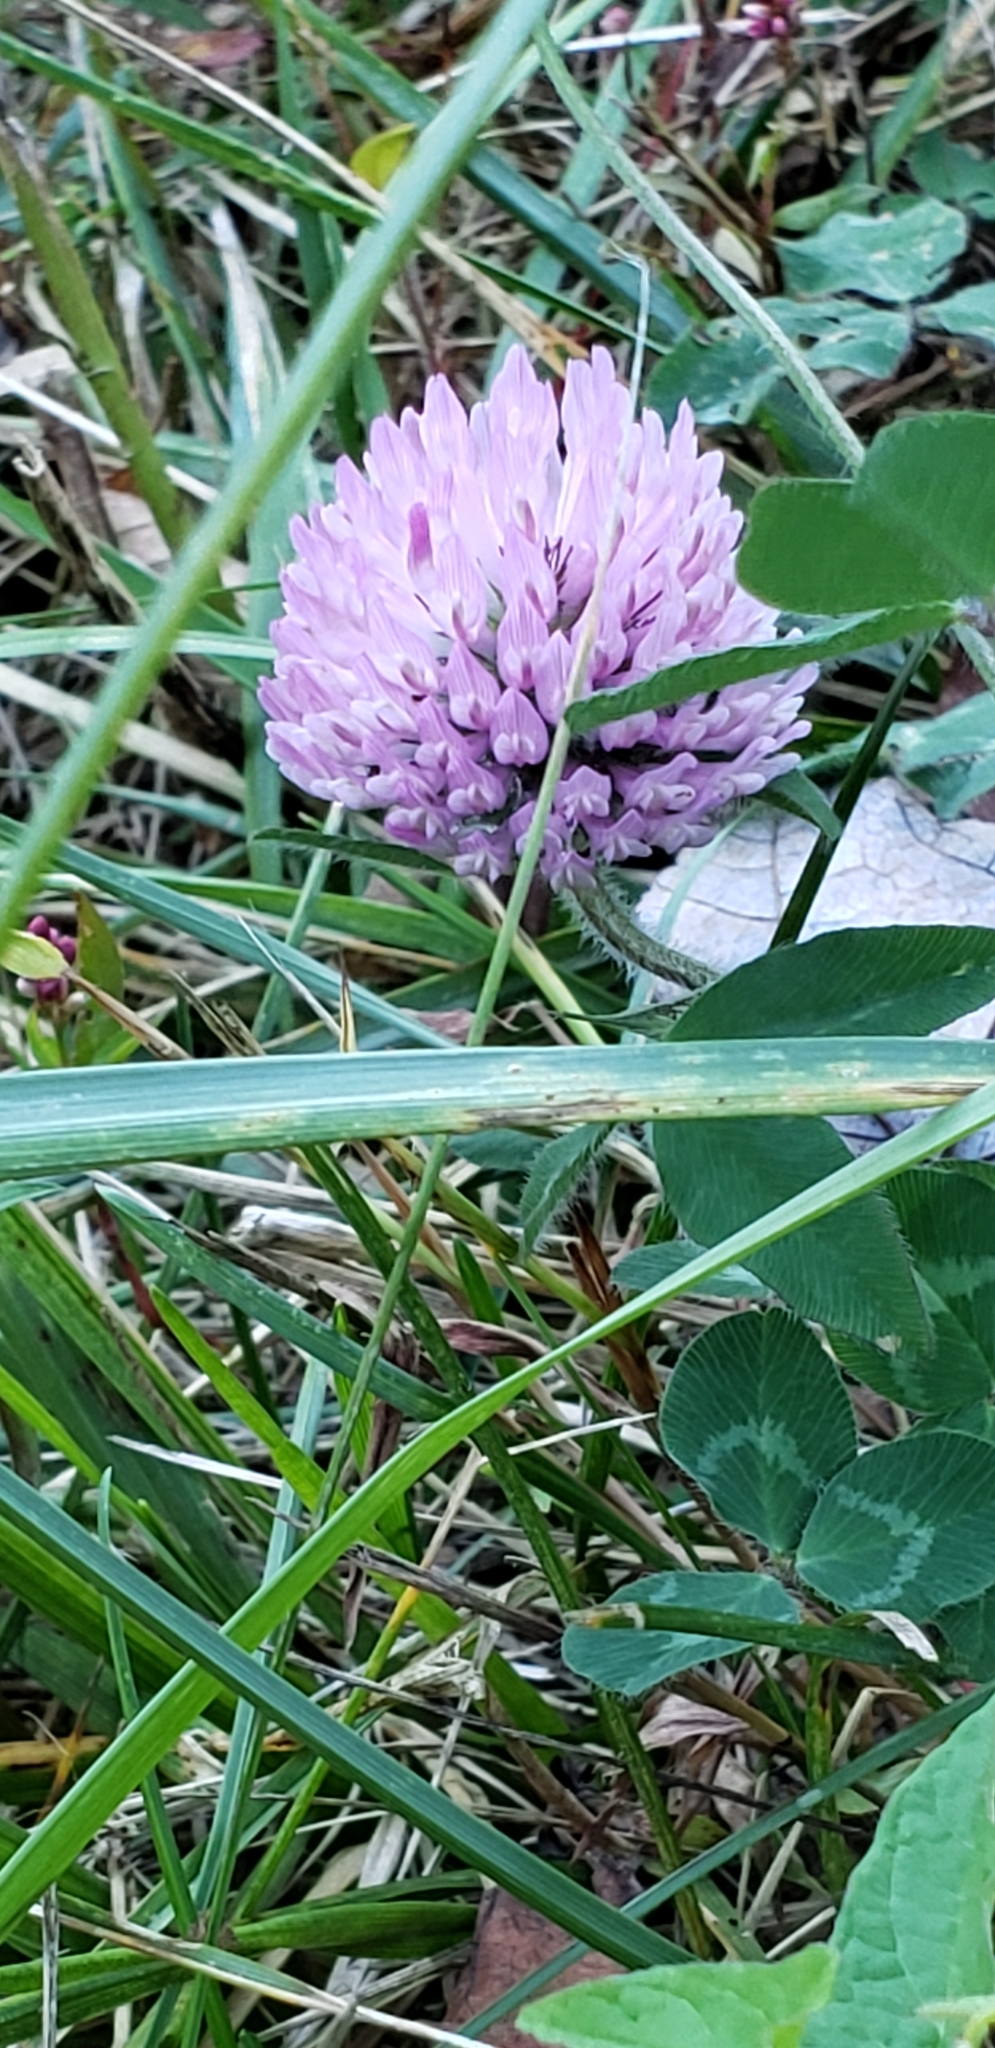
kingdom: Plantae
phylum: Tracheophyta
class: Magnoliopsida
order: Fabales
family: Fabaceae
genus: Trifolium
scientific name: Trifolium pratense
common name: Red clover
